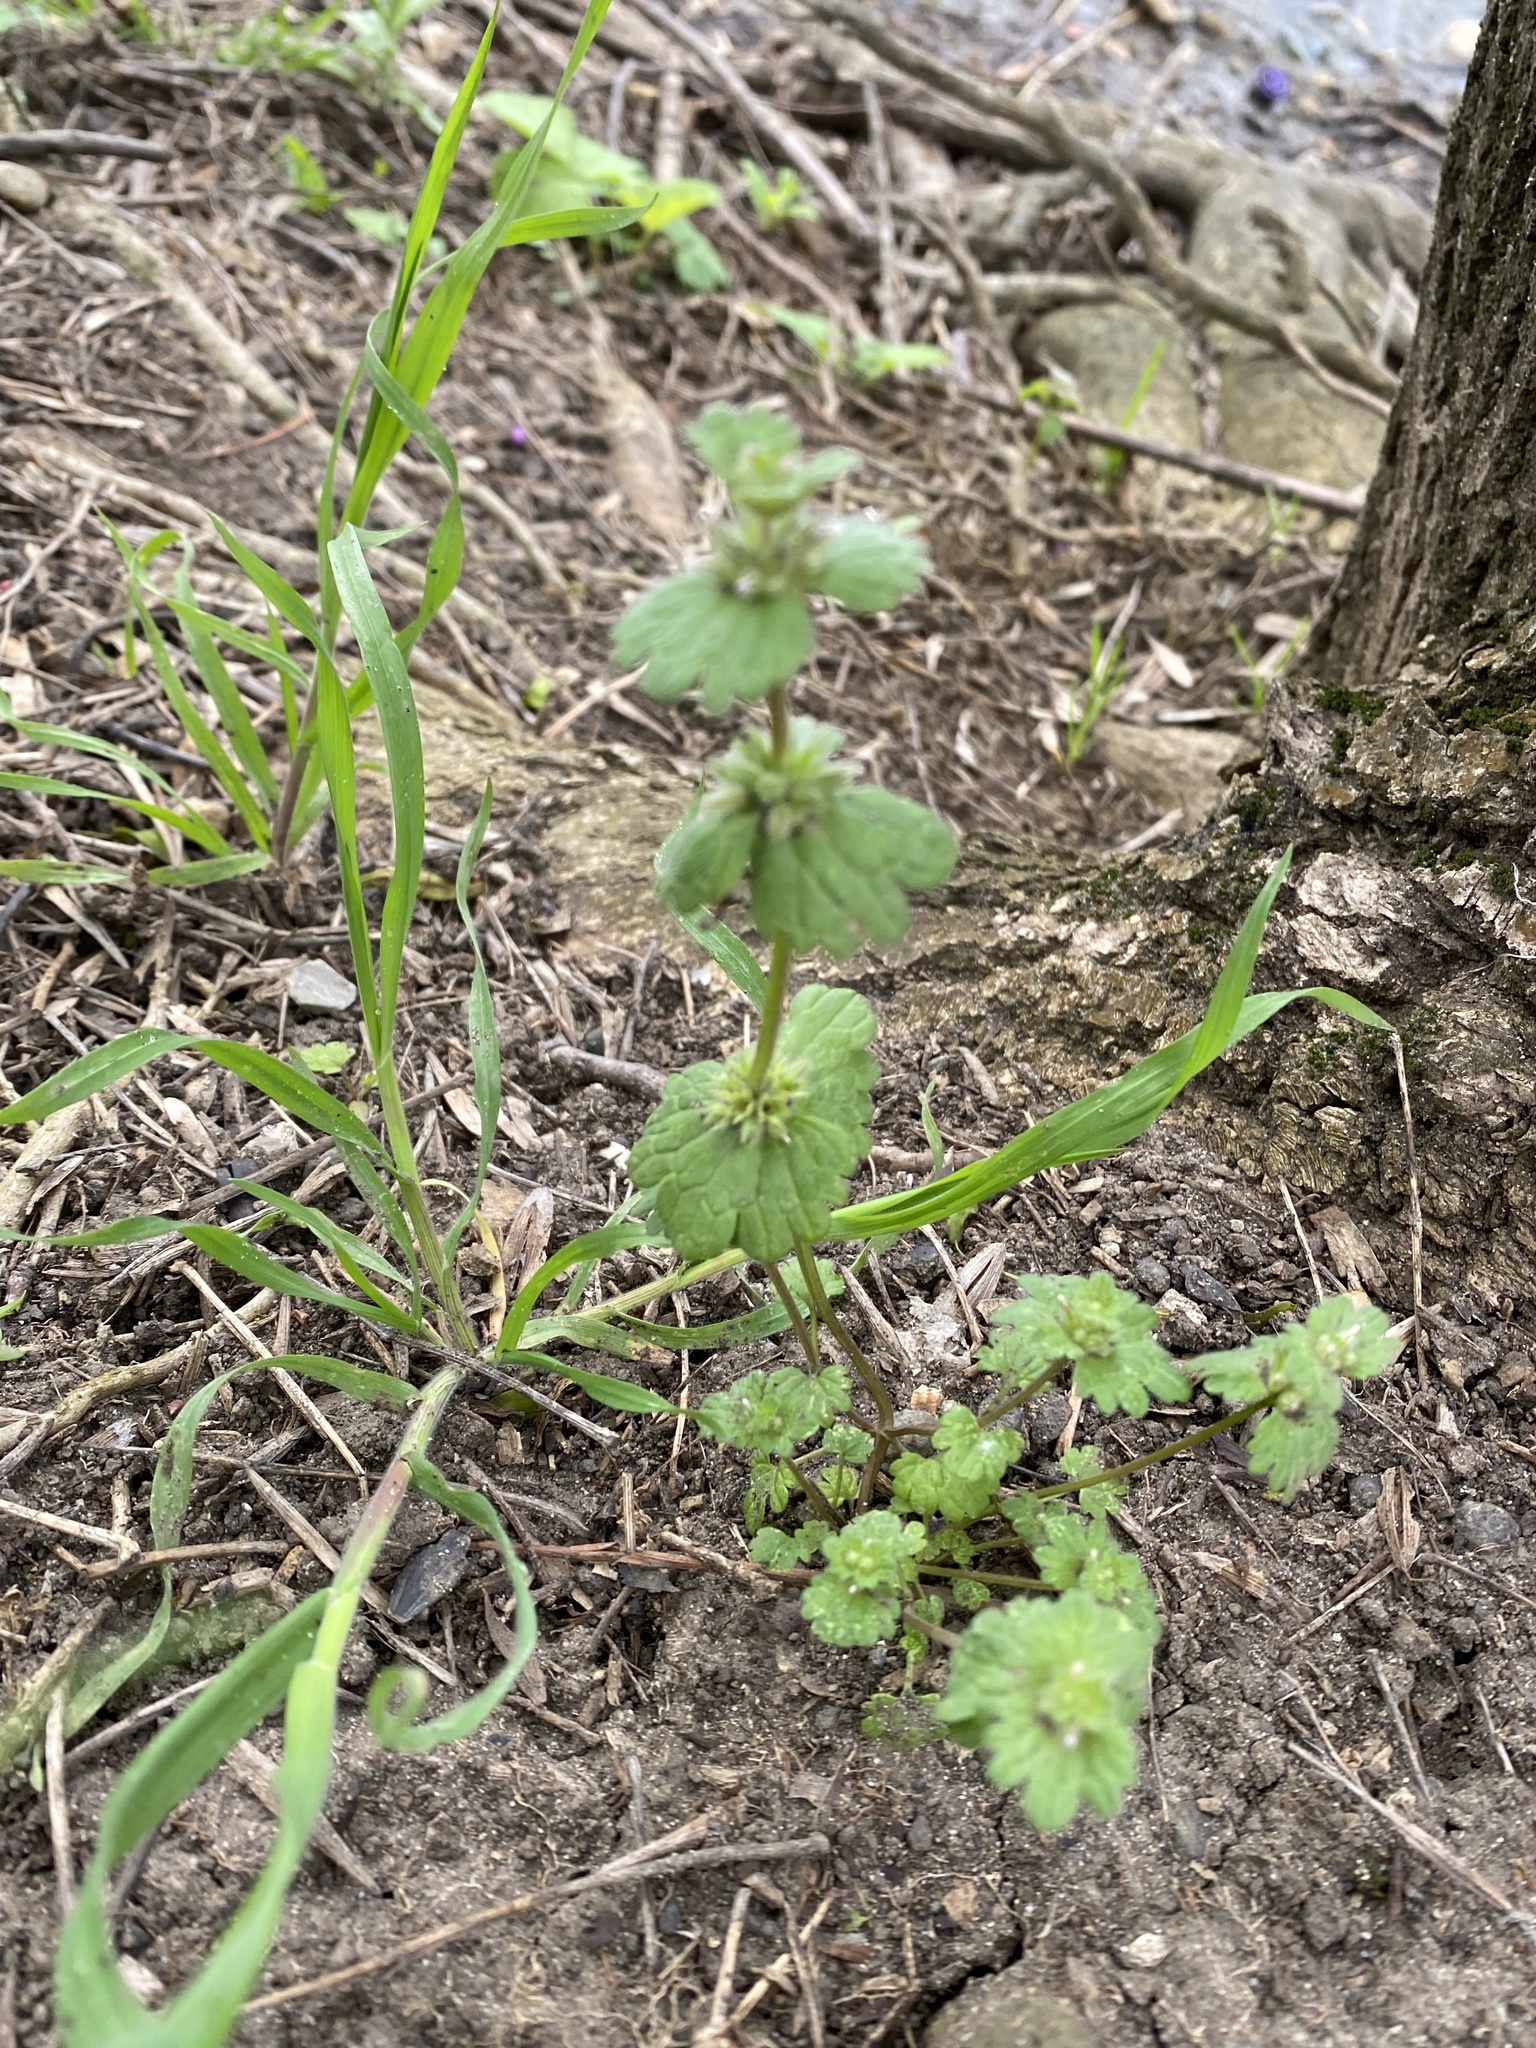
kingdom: Plantae
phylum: Tracheophyta
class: Magnoliopsida
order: Lamiales
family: Lamiaceae
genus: Lamium
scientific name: Lamium amplexicaule
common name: Henbit dead-nettle
